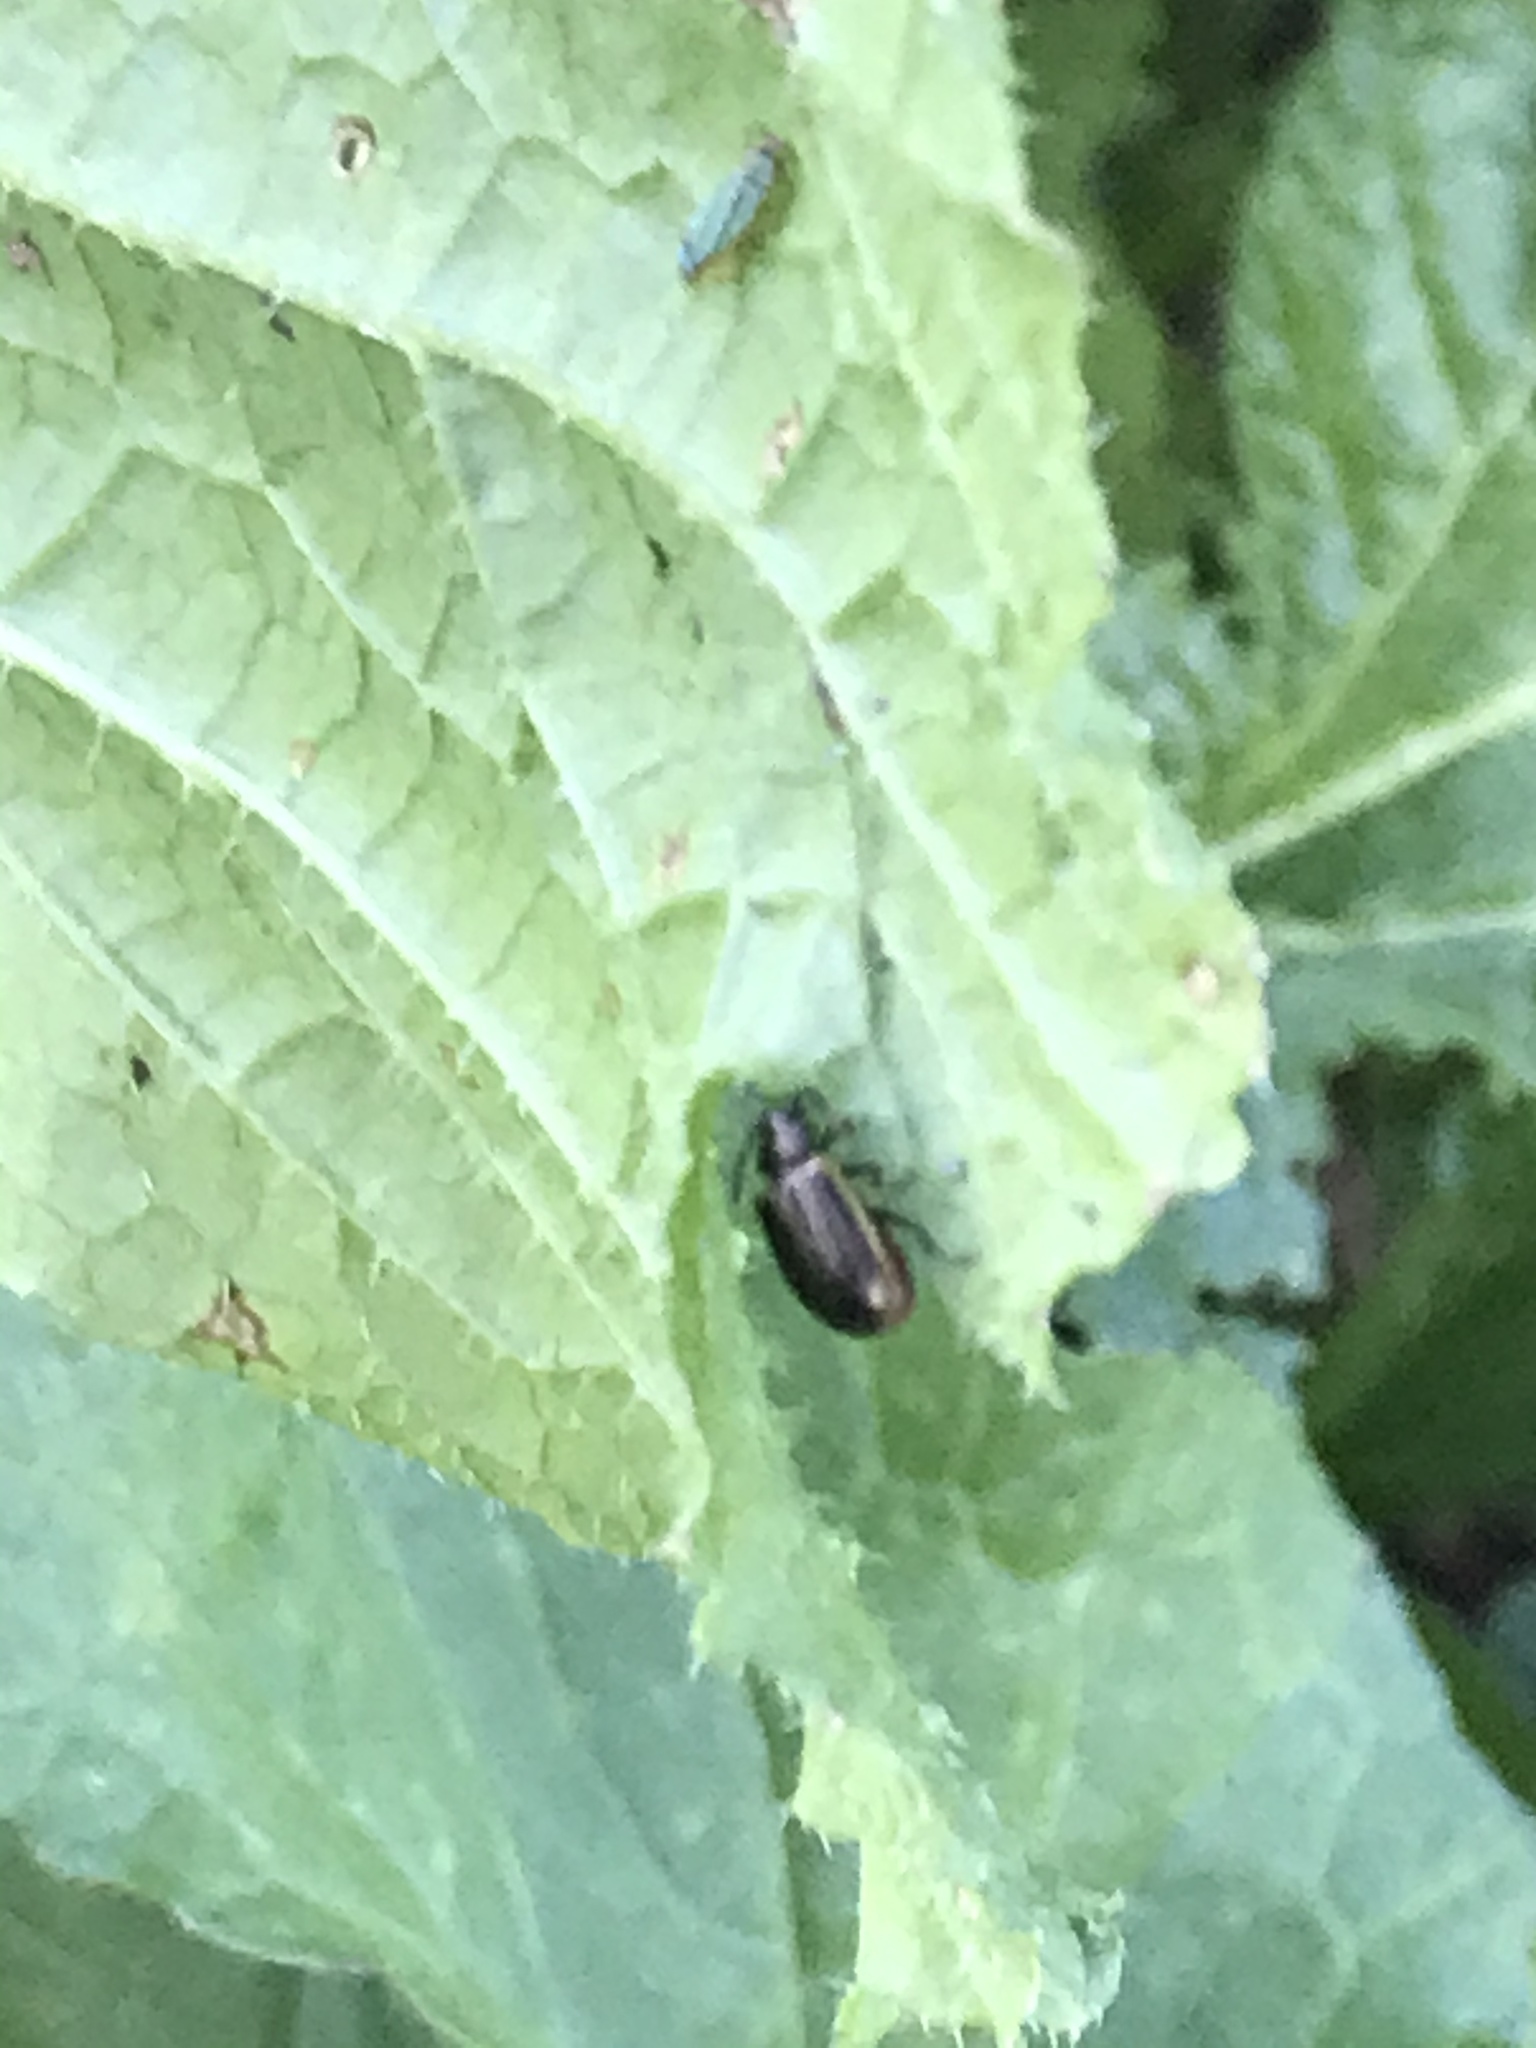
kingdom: Animalia
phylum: Arthropoda
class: Insecta
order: Coleoptera
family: Chrysomelidae
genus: Microtheca
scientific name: Microtheca ochroloma
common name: Leaf beetle
